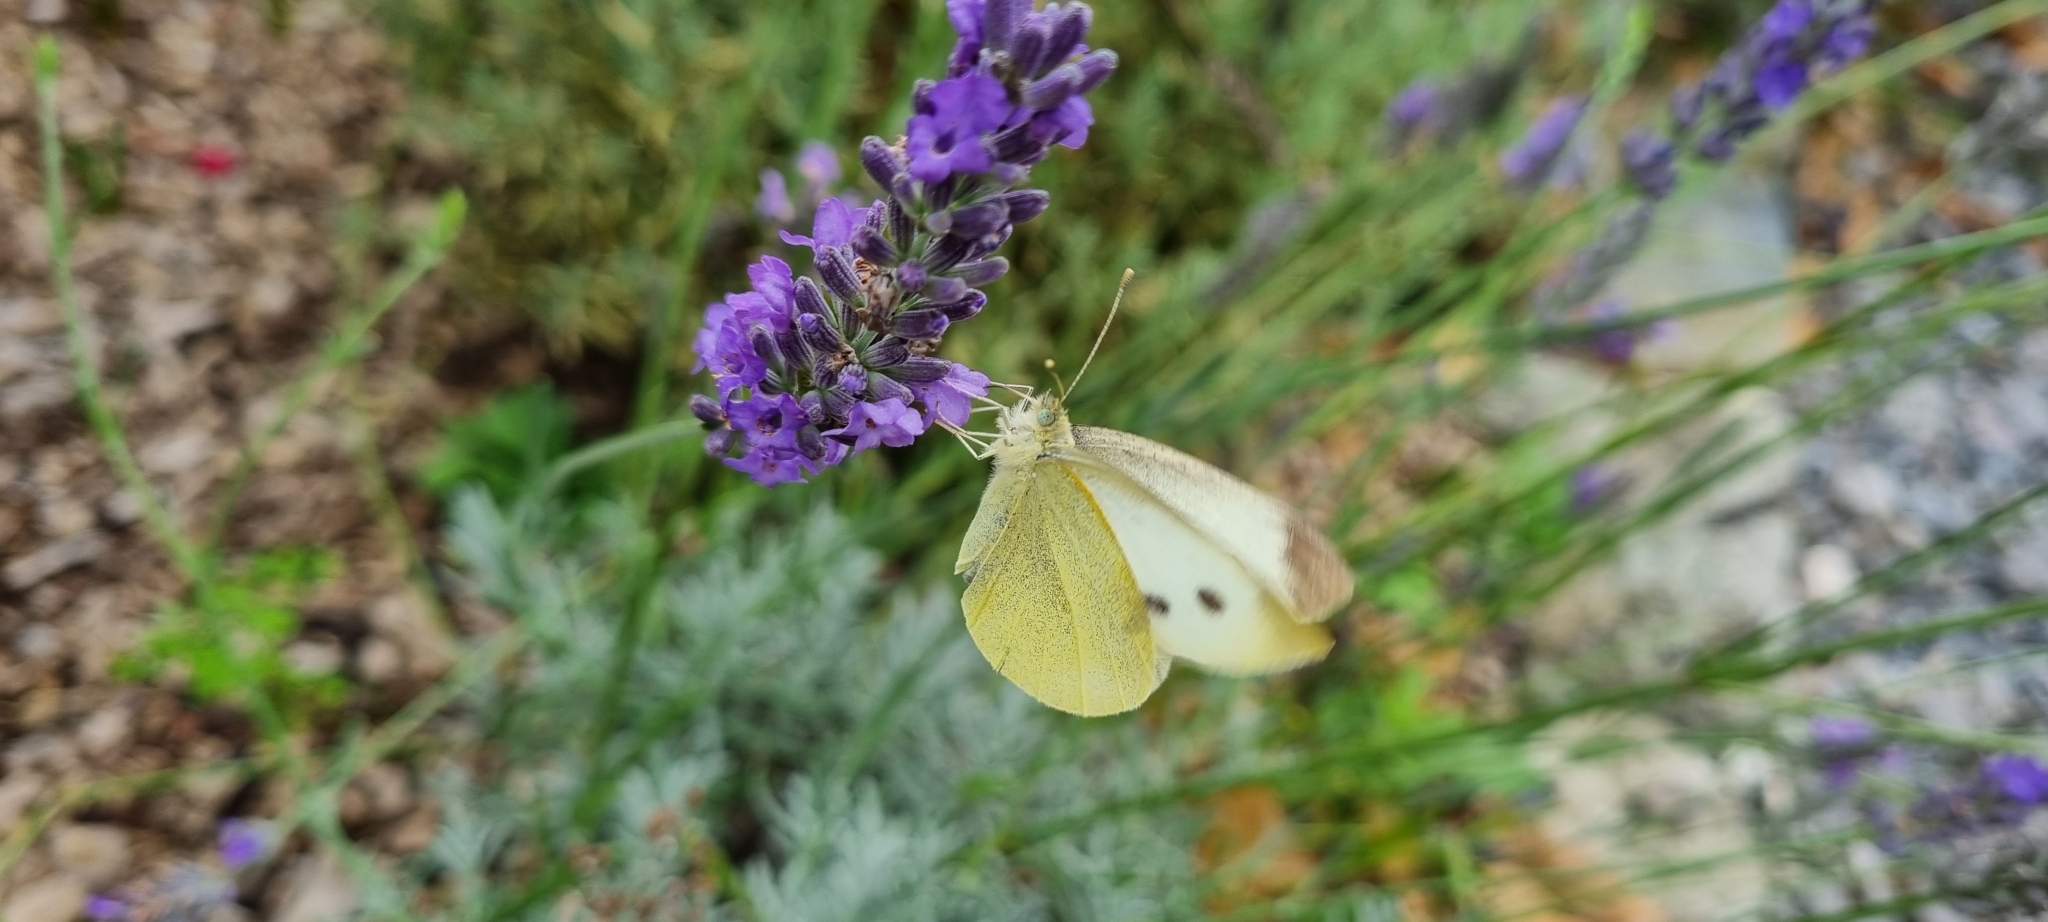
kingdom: Animalia
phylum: Arthropoda
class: Insecta
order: Lepidoptera
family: Pieridae
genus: Pieris
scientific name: Pieris rapae
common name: Small white
